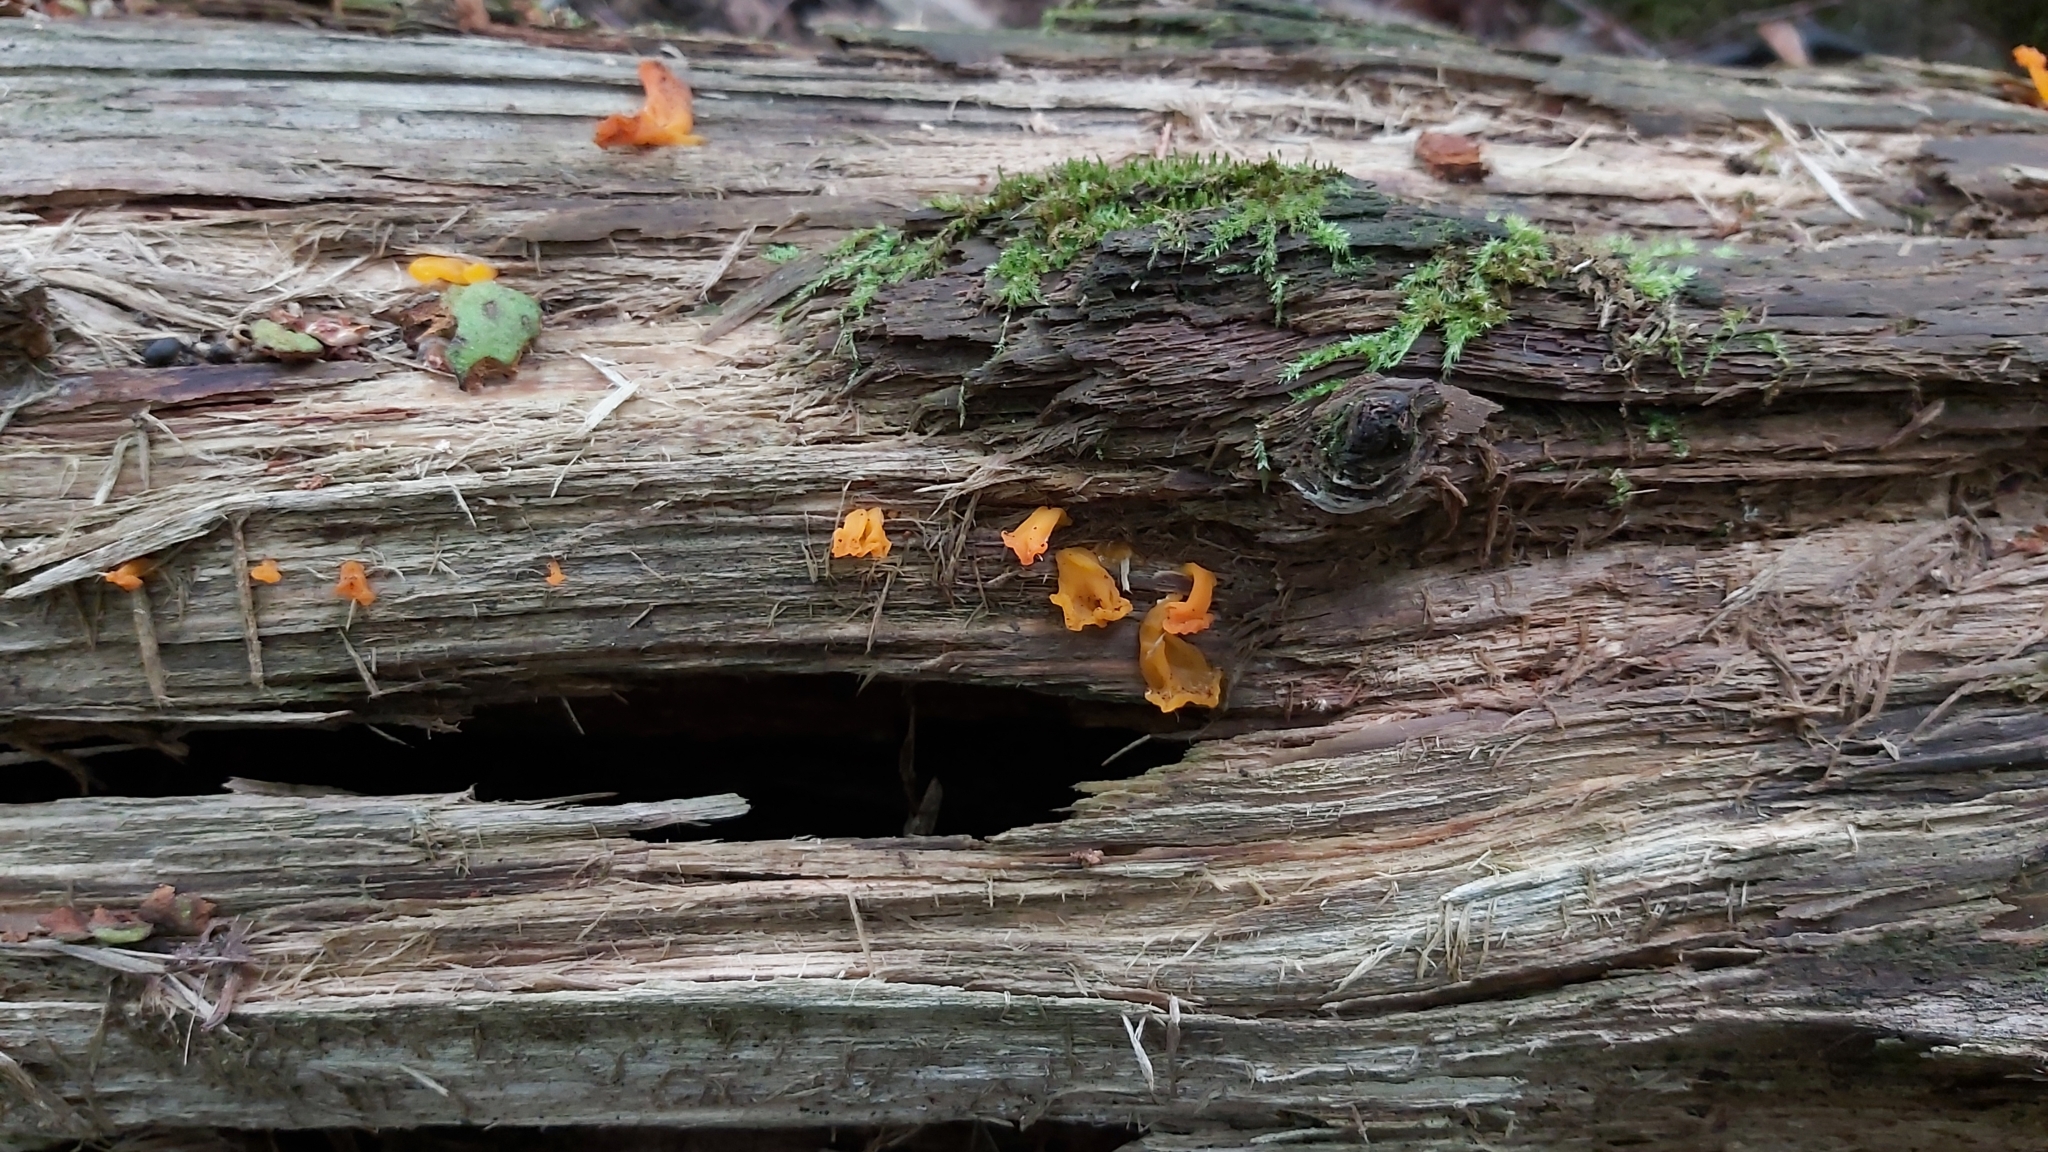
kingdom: Fungi
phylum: Basidiomycota
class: Dacrymycetes
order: Dacrymycetales
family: Dacrymycetaceae
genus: Dacrymyces
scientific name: Dacrymyces chrysospermus
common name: Orange jelly spot
